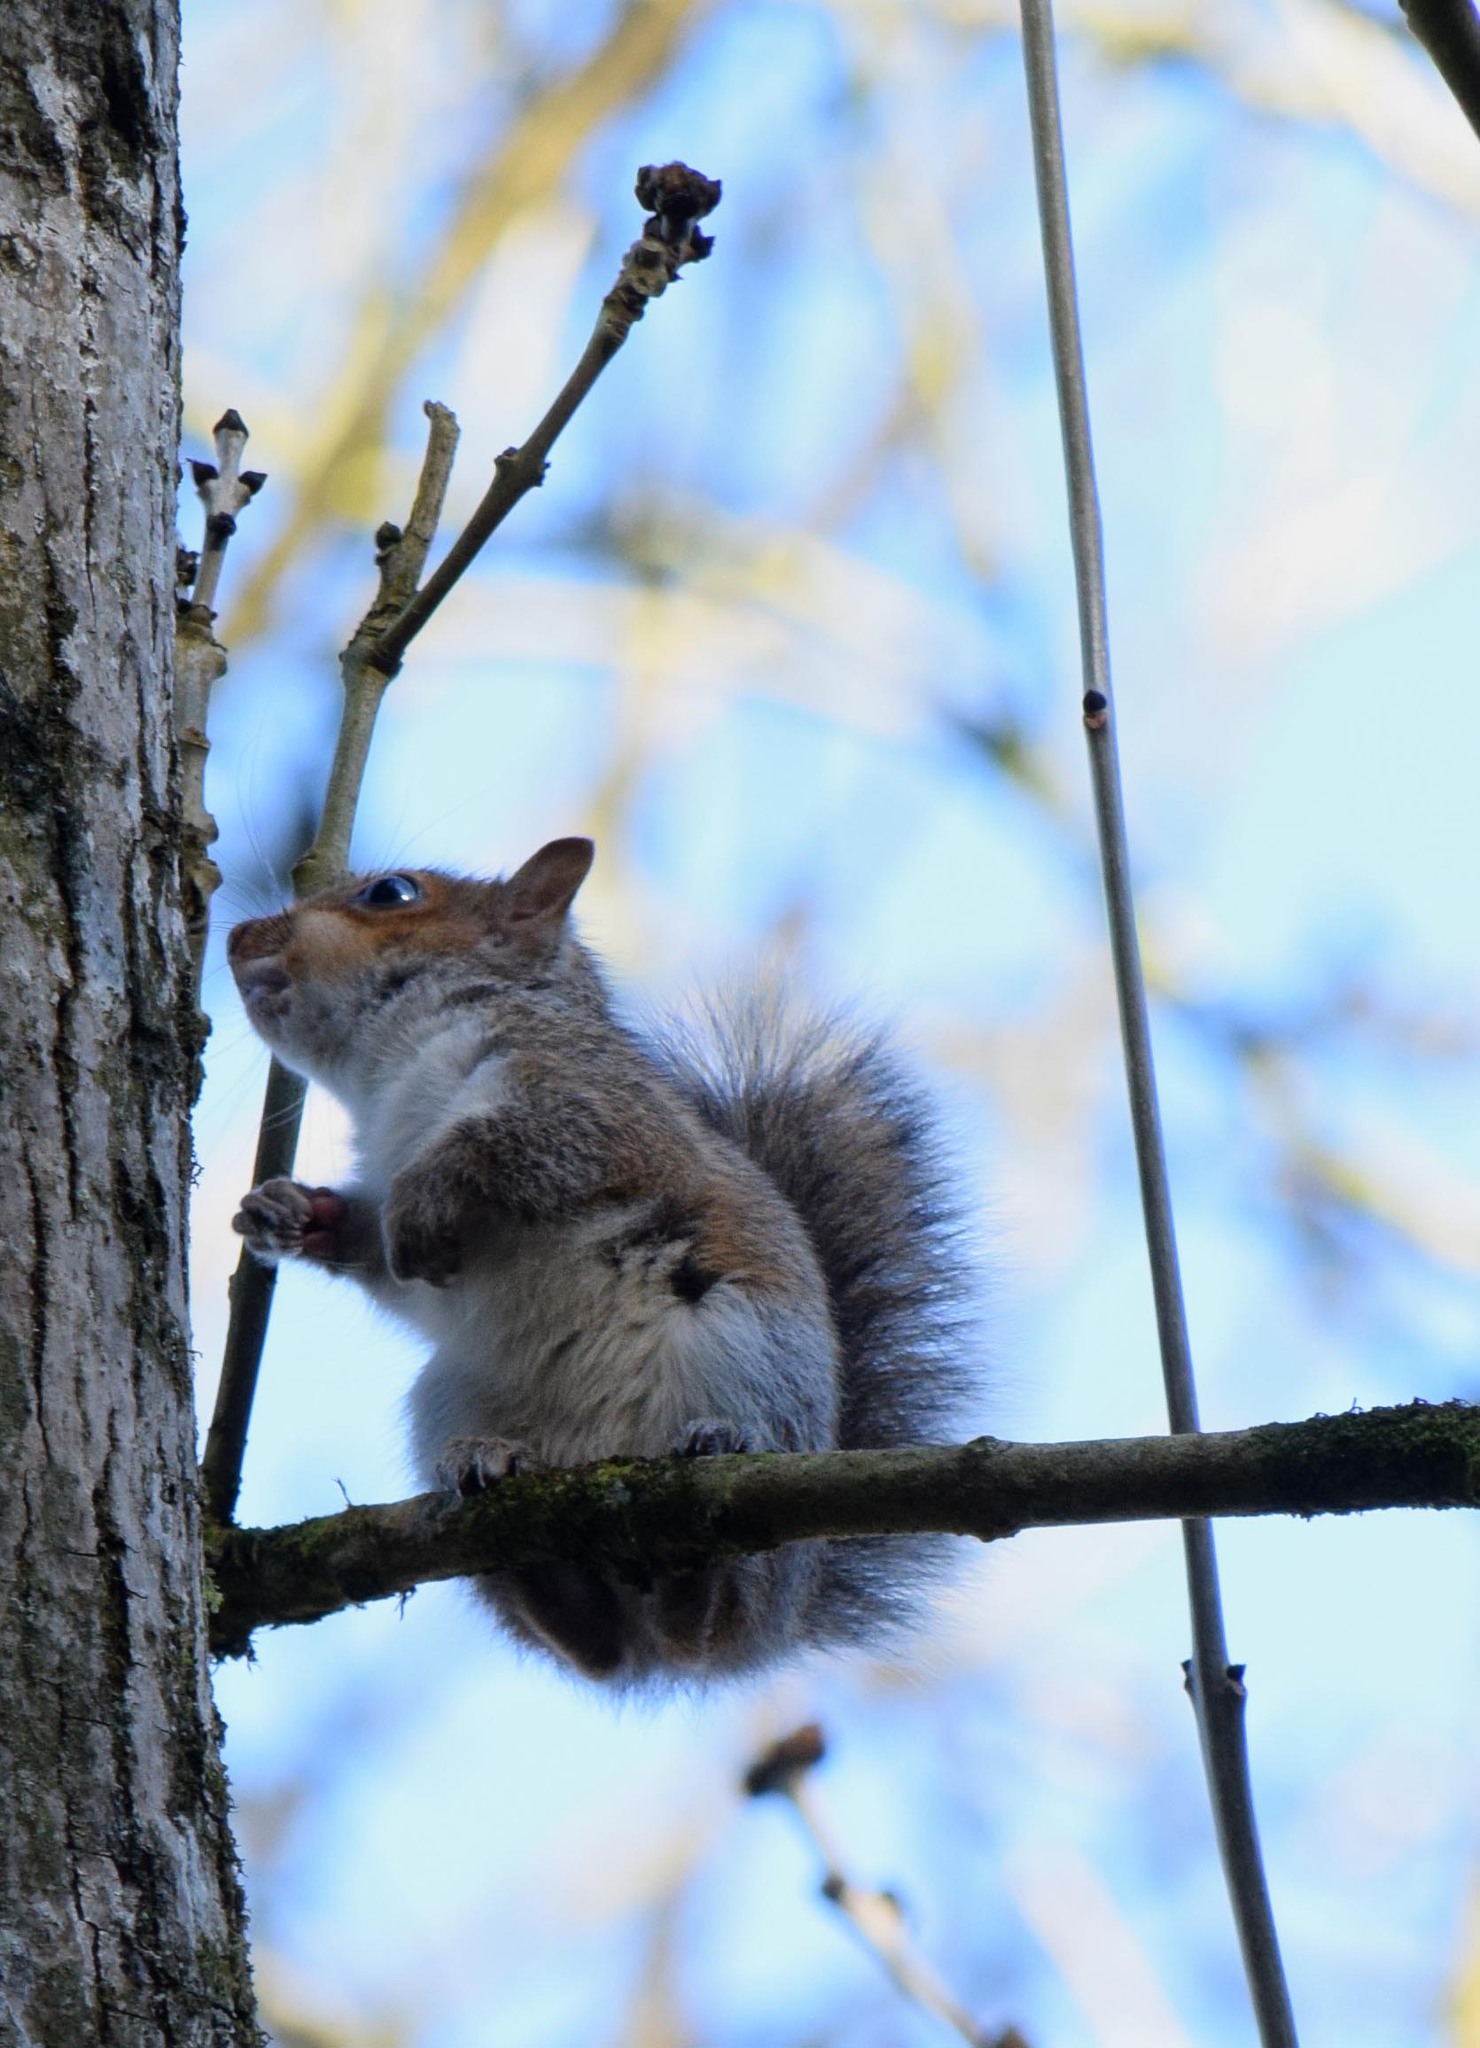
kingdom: Animalia
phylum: Chordata
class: Mammalia
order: Rodentia
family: Sciuridae
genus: Sciurus
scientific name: Sciurus carolinensis
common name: Eastern gray squirrel
